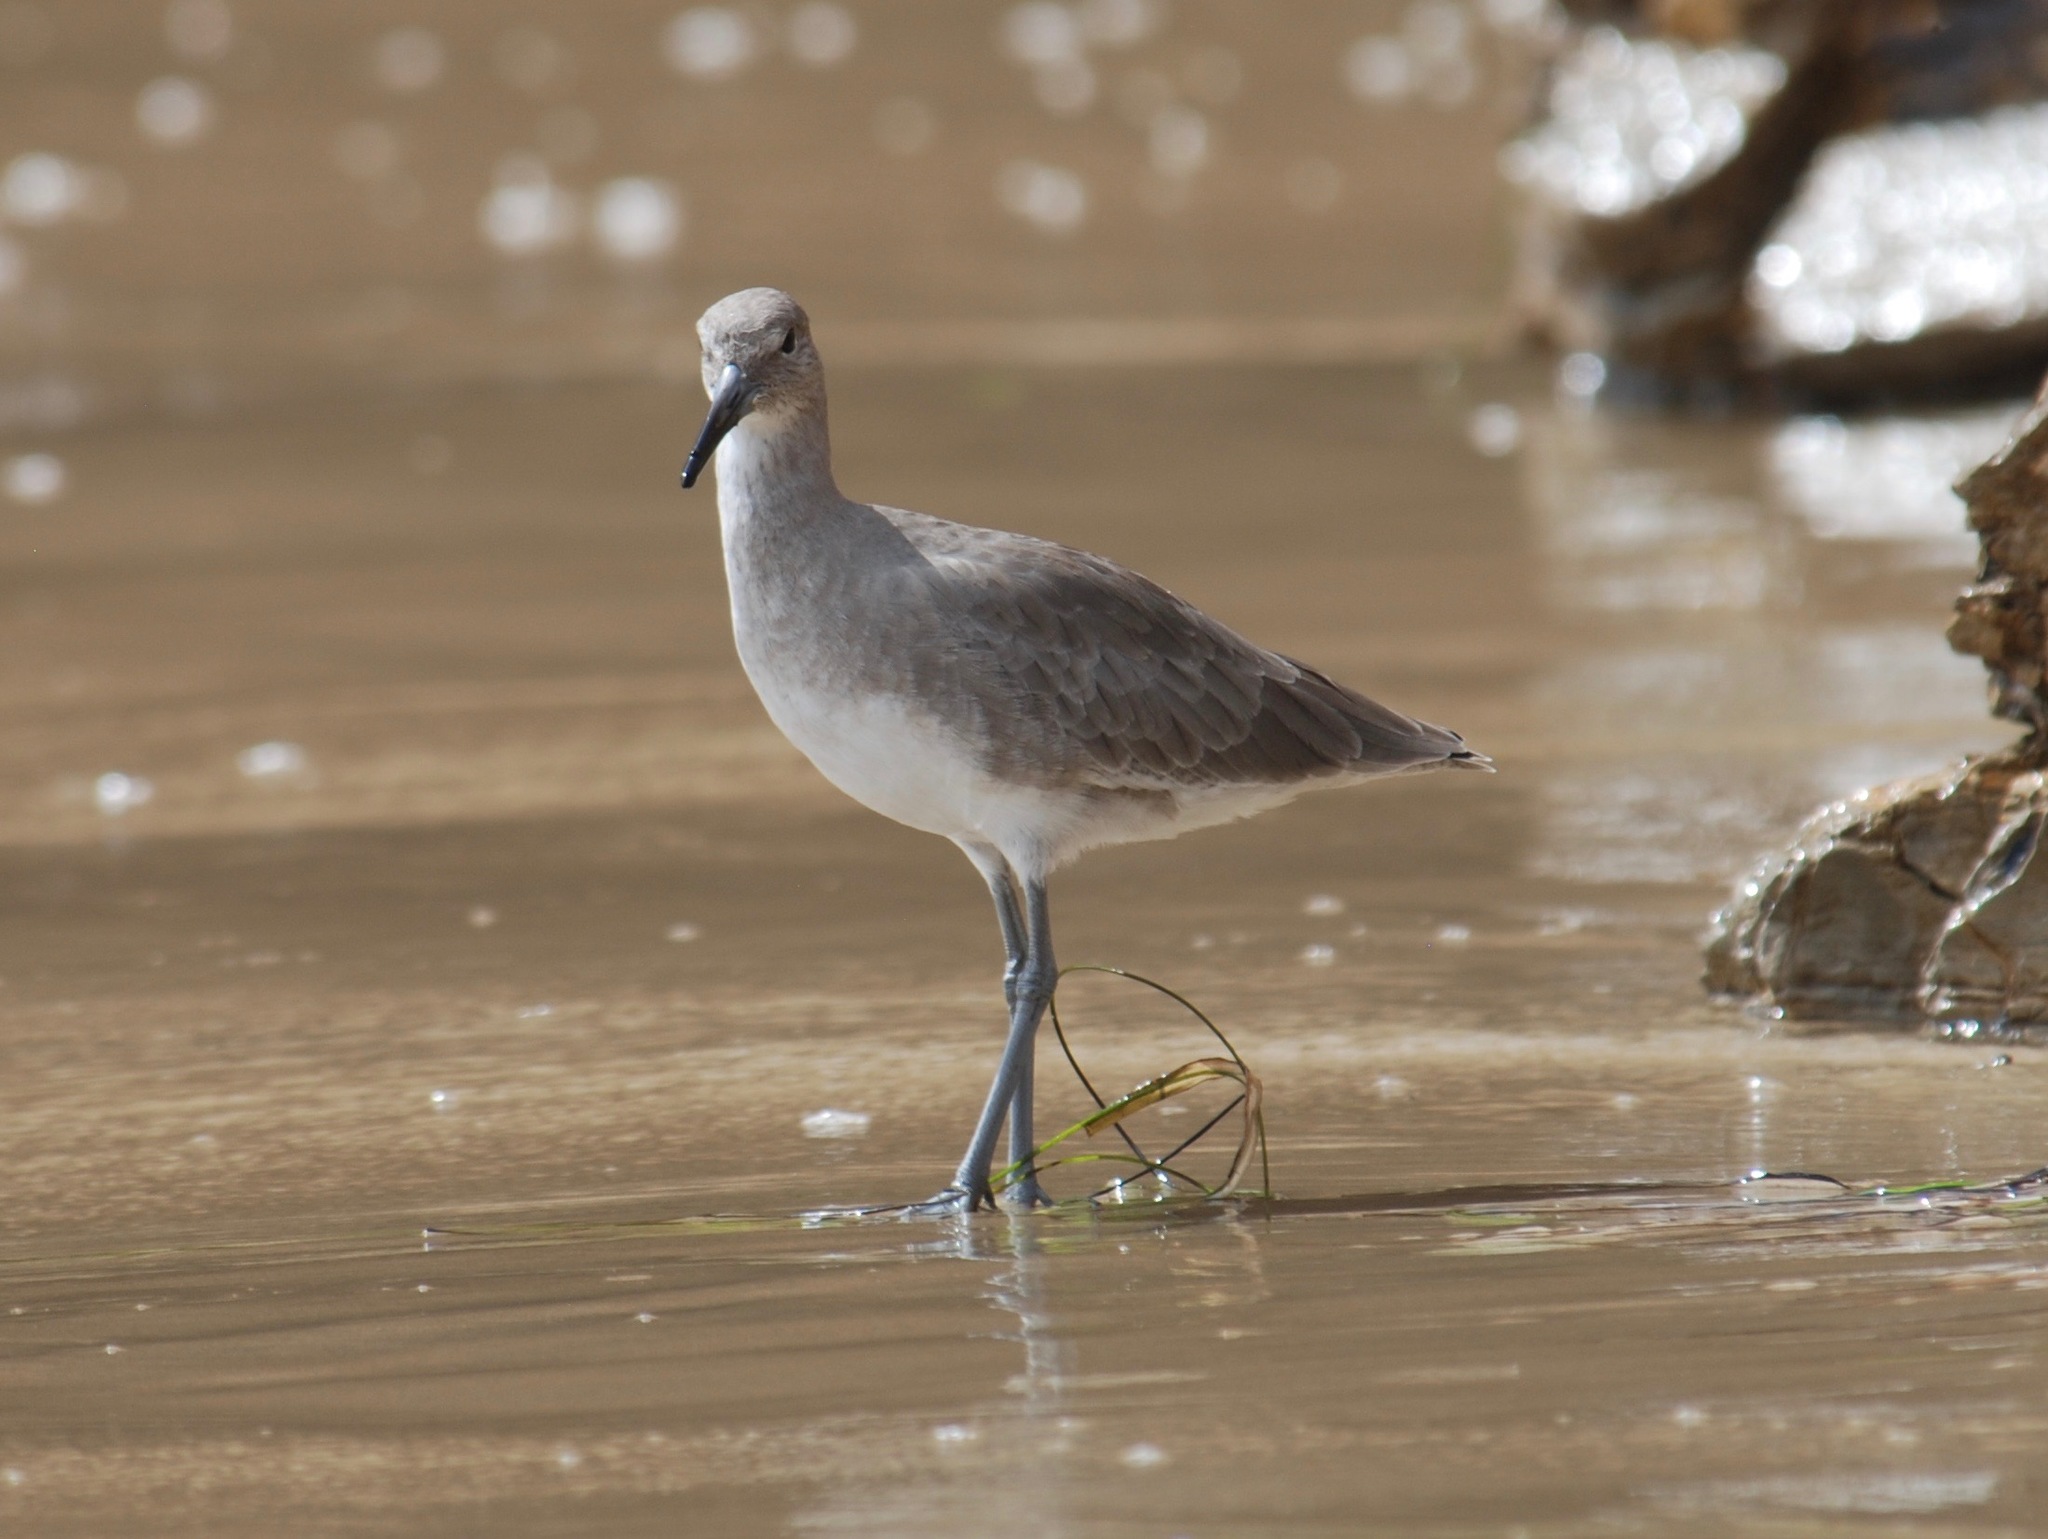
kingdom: Animalia
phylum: Chordata
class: Aves
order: Charadriiformes
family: Scolopacidae
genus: Tringa
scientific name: Tringa semipalmata
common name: Willet
